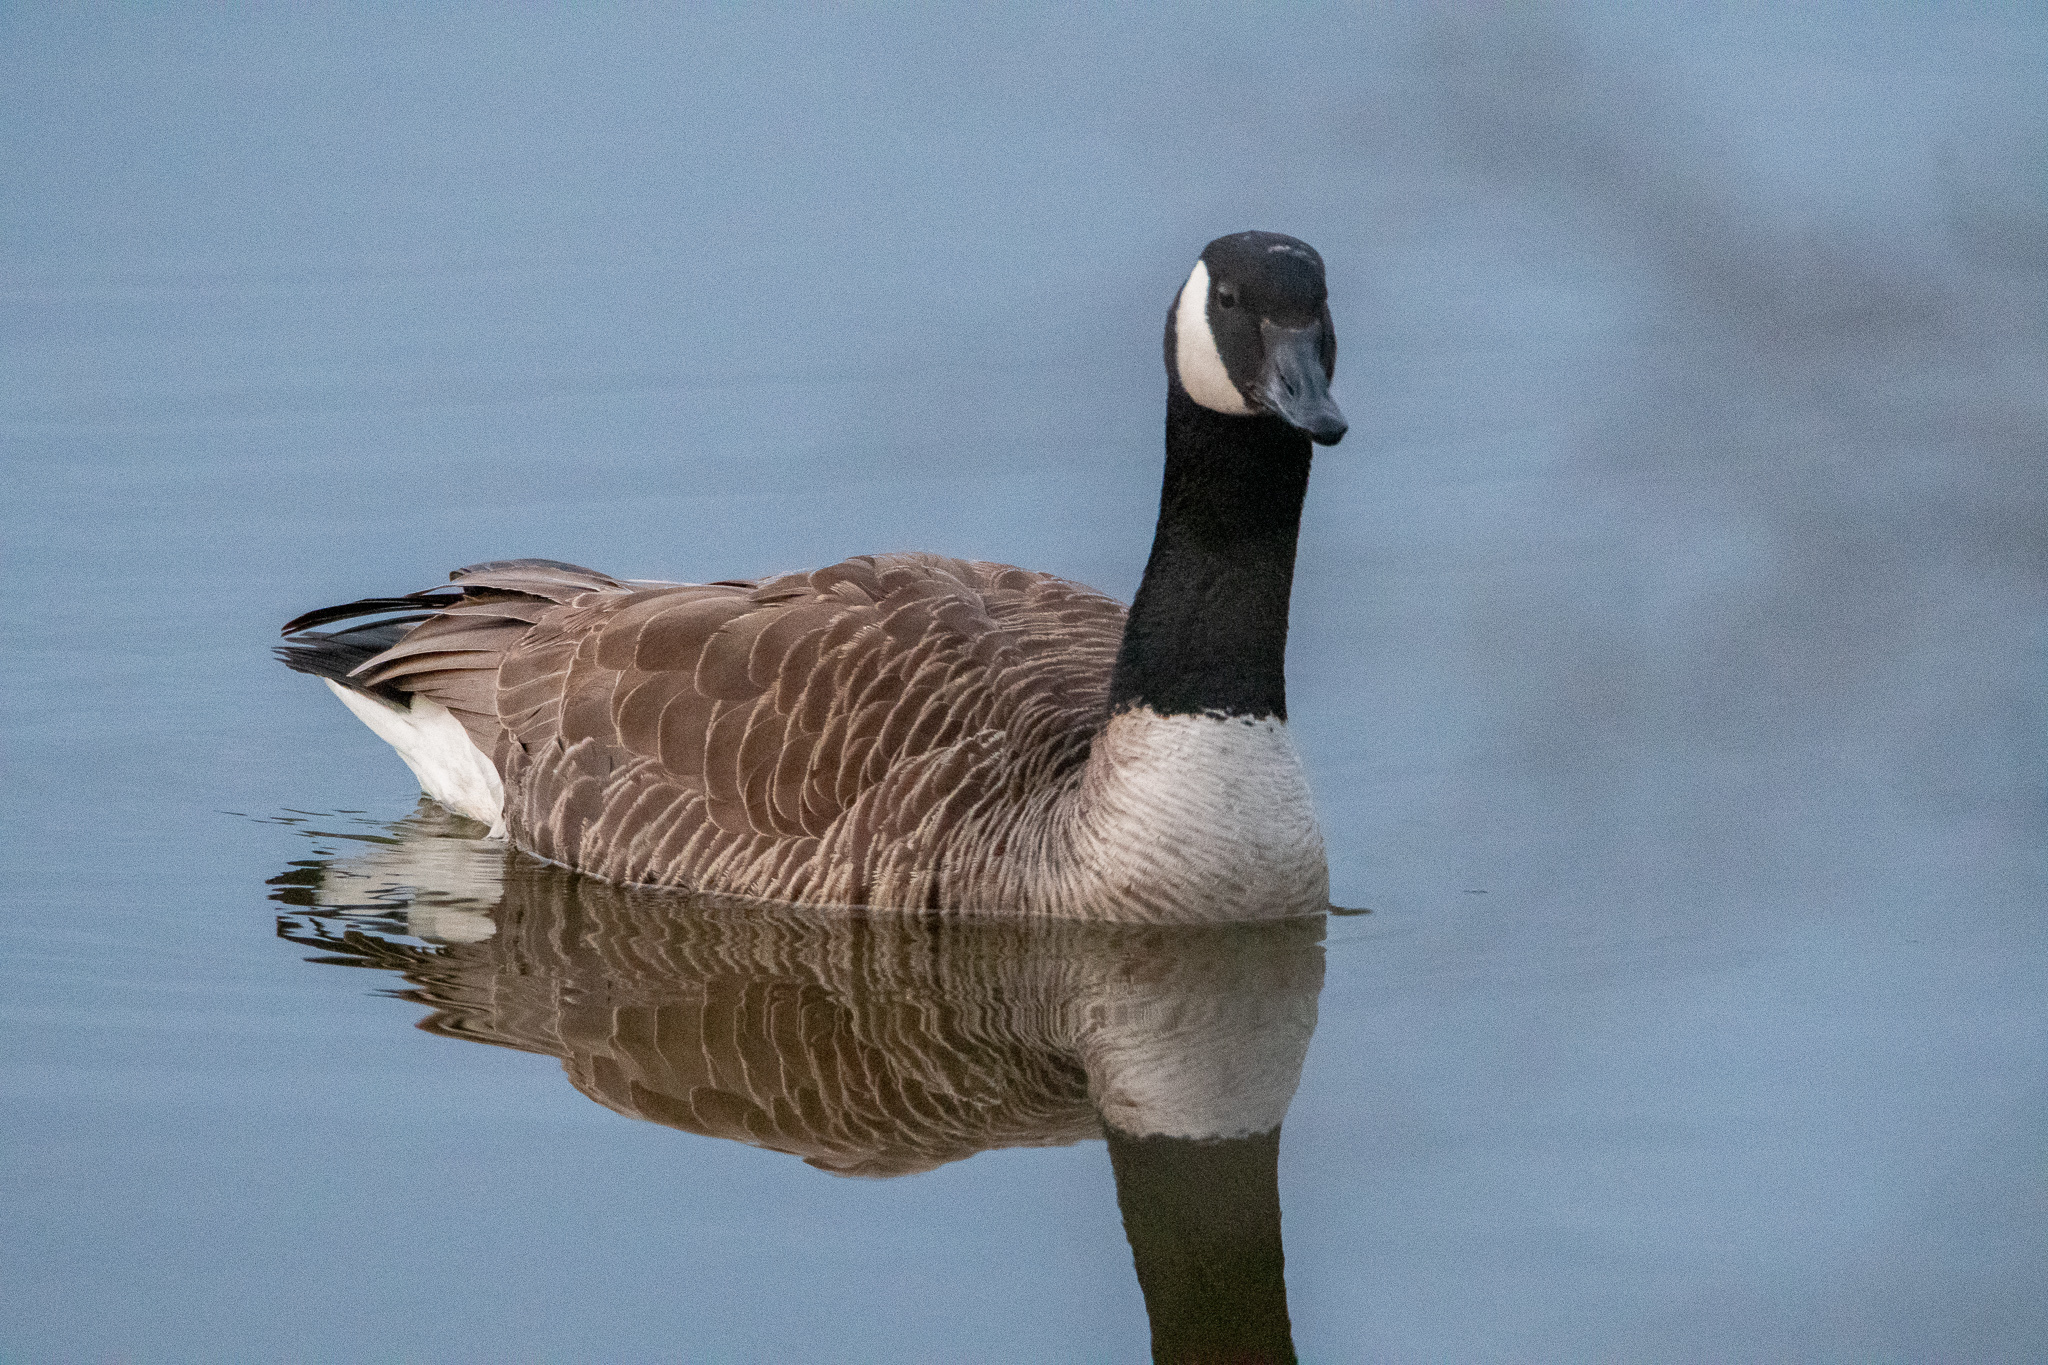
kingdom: Animalia
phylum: Chordata
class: Aves
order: Anseriformes
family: Anatidae
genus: Branta
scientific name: Branta canadensis
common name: Canada goose
